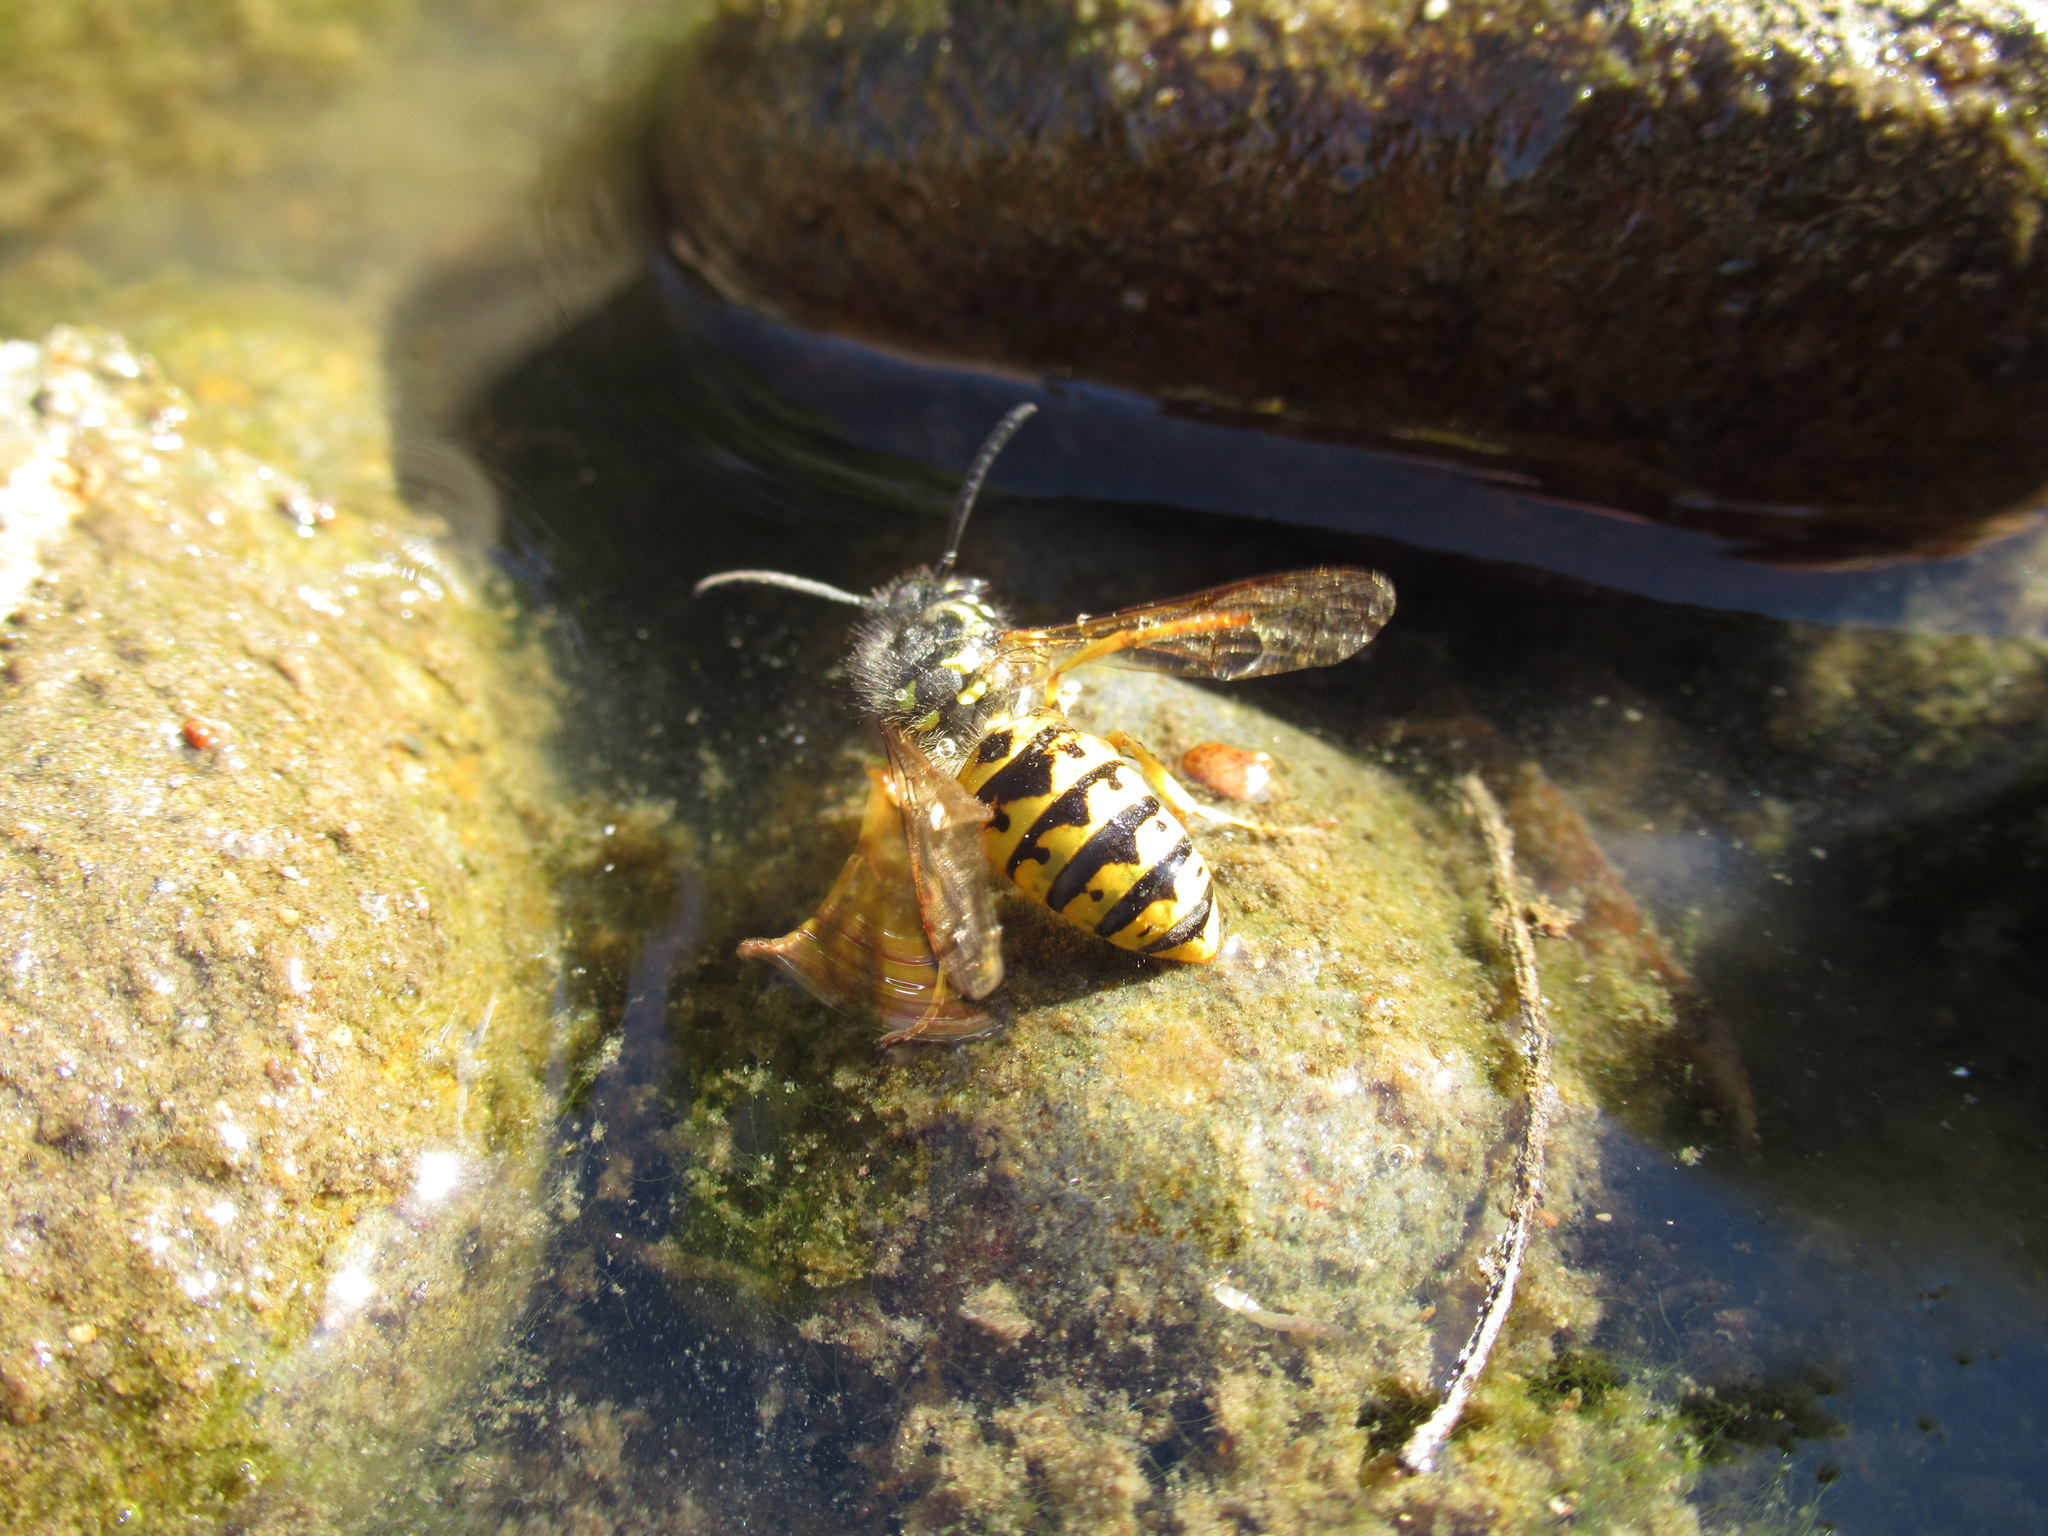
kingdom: Animalia
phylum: Arthropoda
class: Insecta
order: Hymenoptera
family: Vespidae
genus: Vespula
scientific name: Vespula germanica
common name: German wasp
